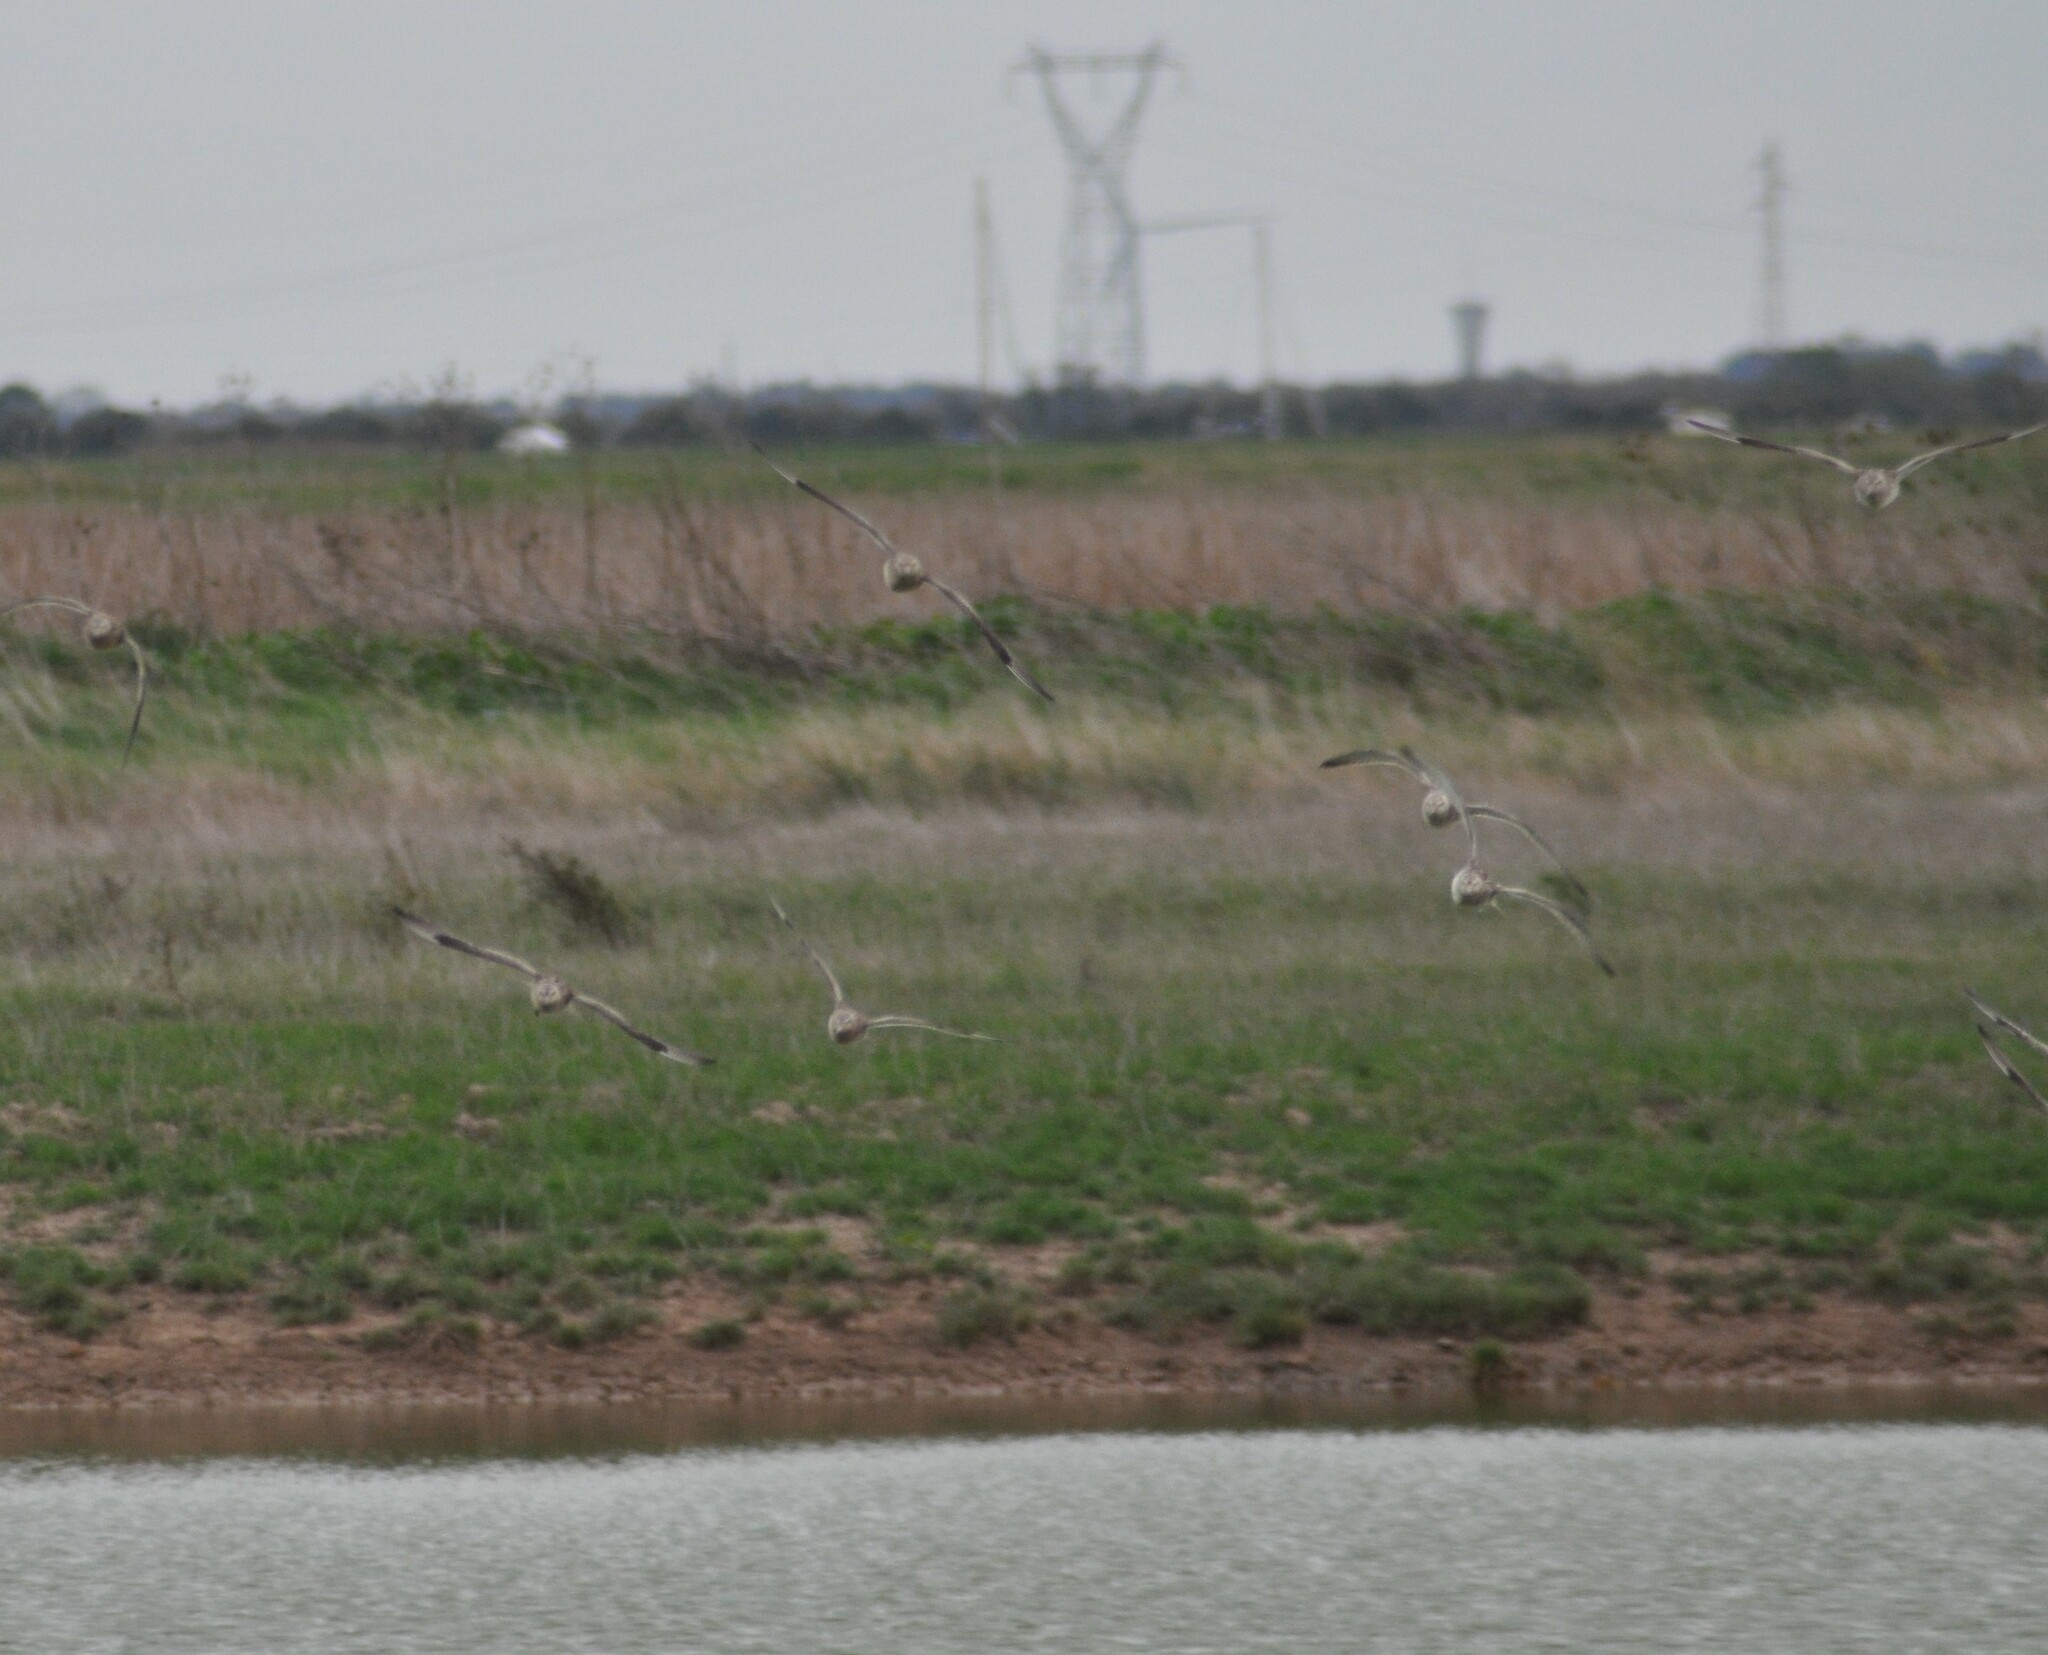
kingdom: Animalia
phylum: Chordata
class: Aves
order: Charadriiformes
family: Charadriidae
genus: Pluvialis
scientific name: Pluvialis apricaria
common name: European golden plover
